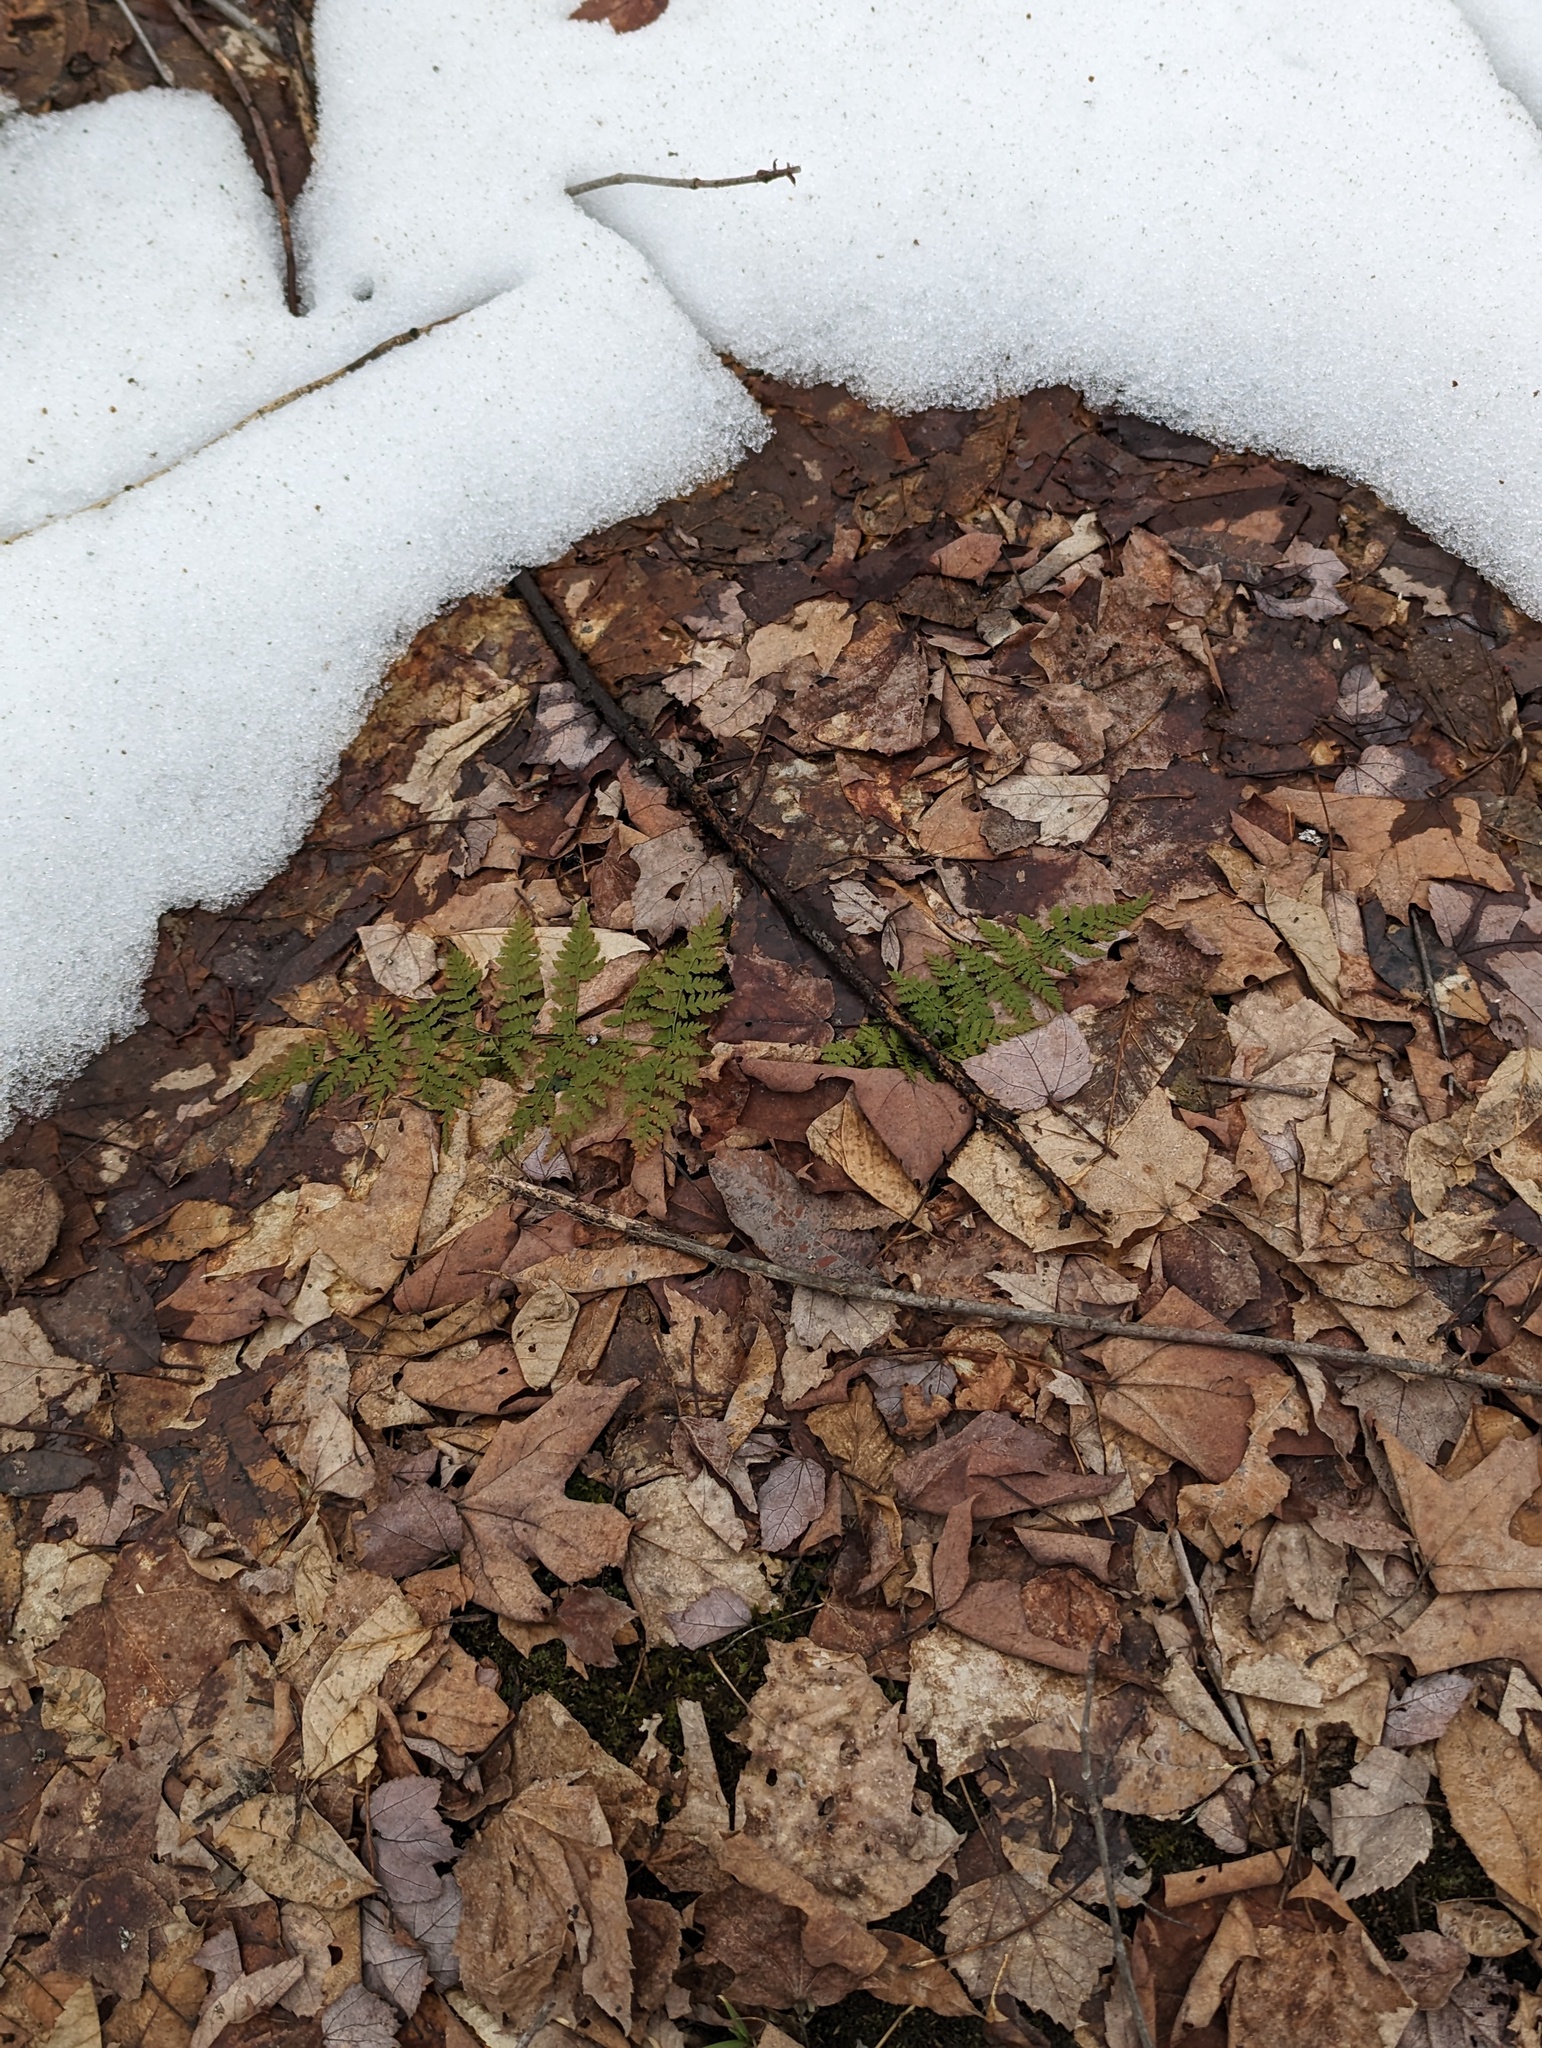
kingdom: Plantae
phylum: Tracheophyta
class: Polypodiopsida
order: Polypodiales
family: Dryopteridaceae
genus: Dryopteris
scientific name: Dryopteris intermedia
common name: Evergreen wood fern
